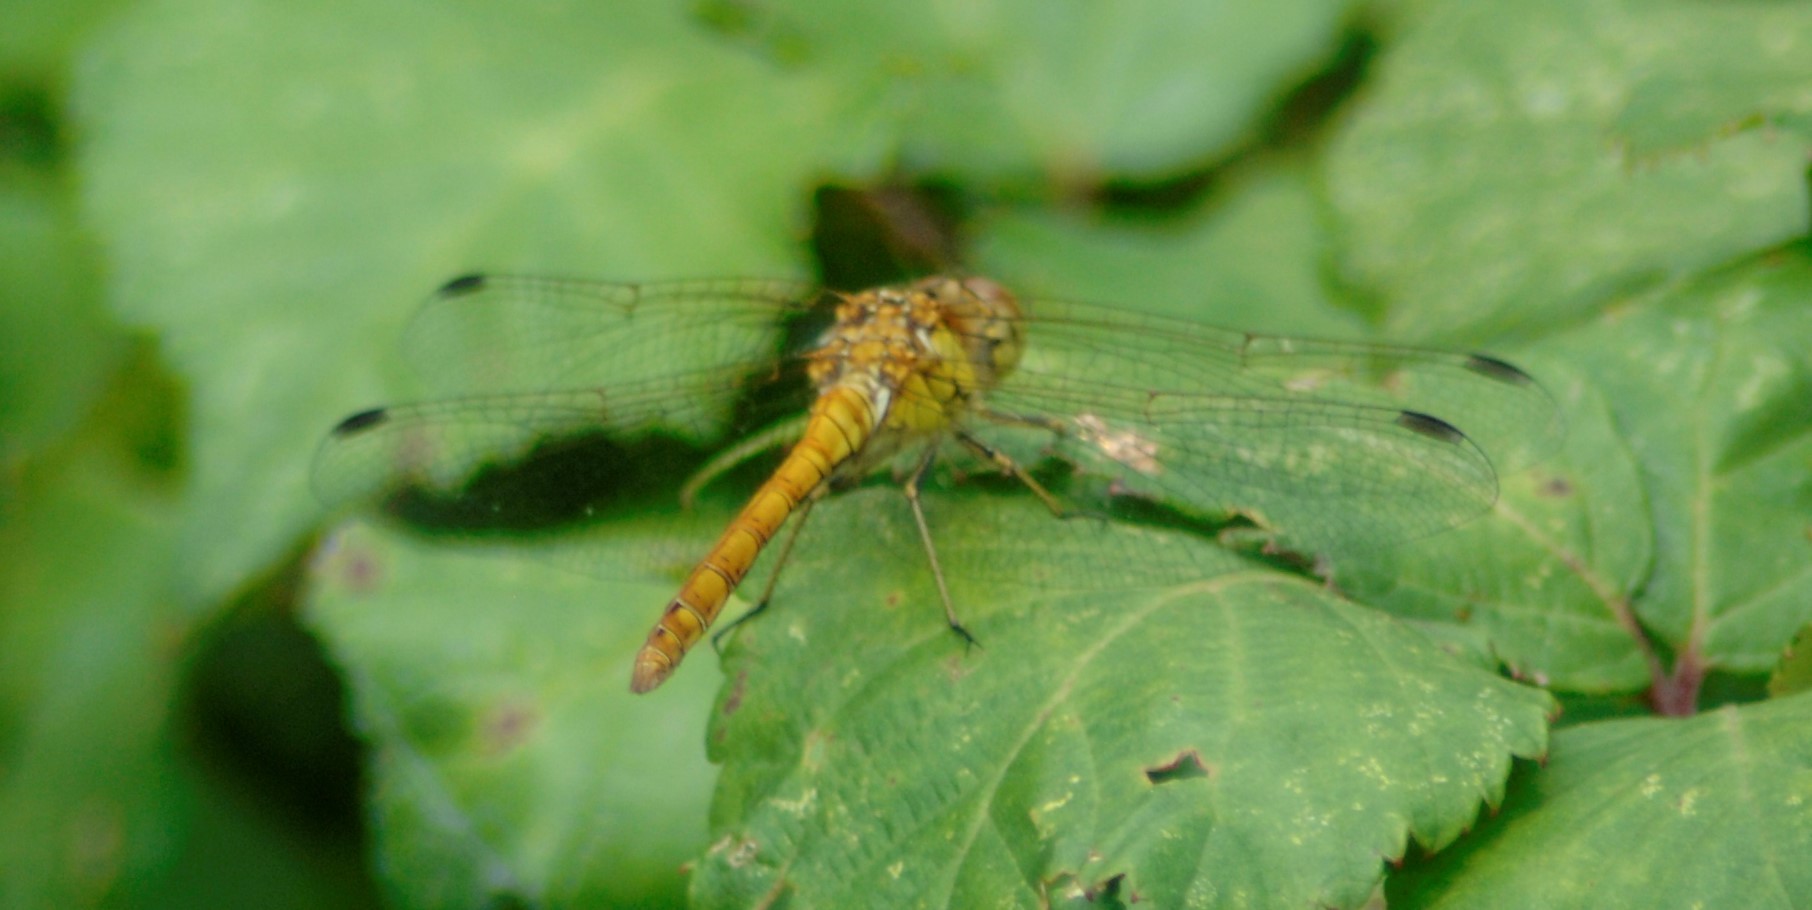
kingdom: Animalia
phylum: Arthropoda
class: Insecta
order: Odonata
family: Libellulidae
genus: Sympetrum
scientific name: Sympetrum striolatum
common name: Common darter
